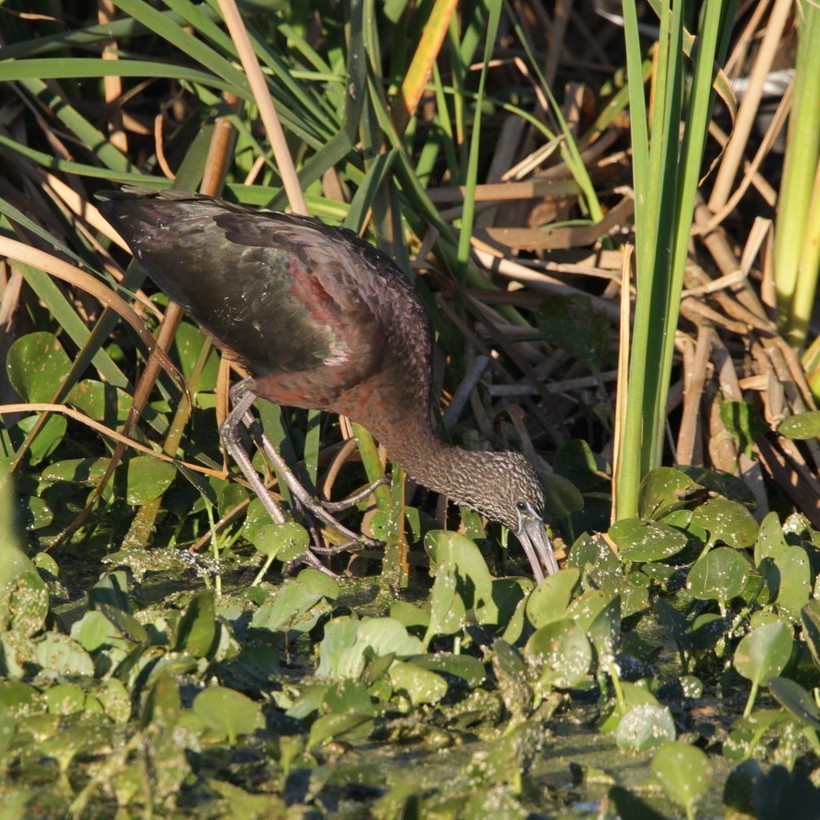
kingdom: Animalia
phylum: Chordata
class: Aves
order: Pelecaniformes
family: Threskiornithidae
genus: Plegadis
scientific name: Plegadis falcinellus
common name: Glossy ibis
